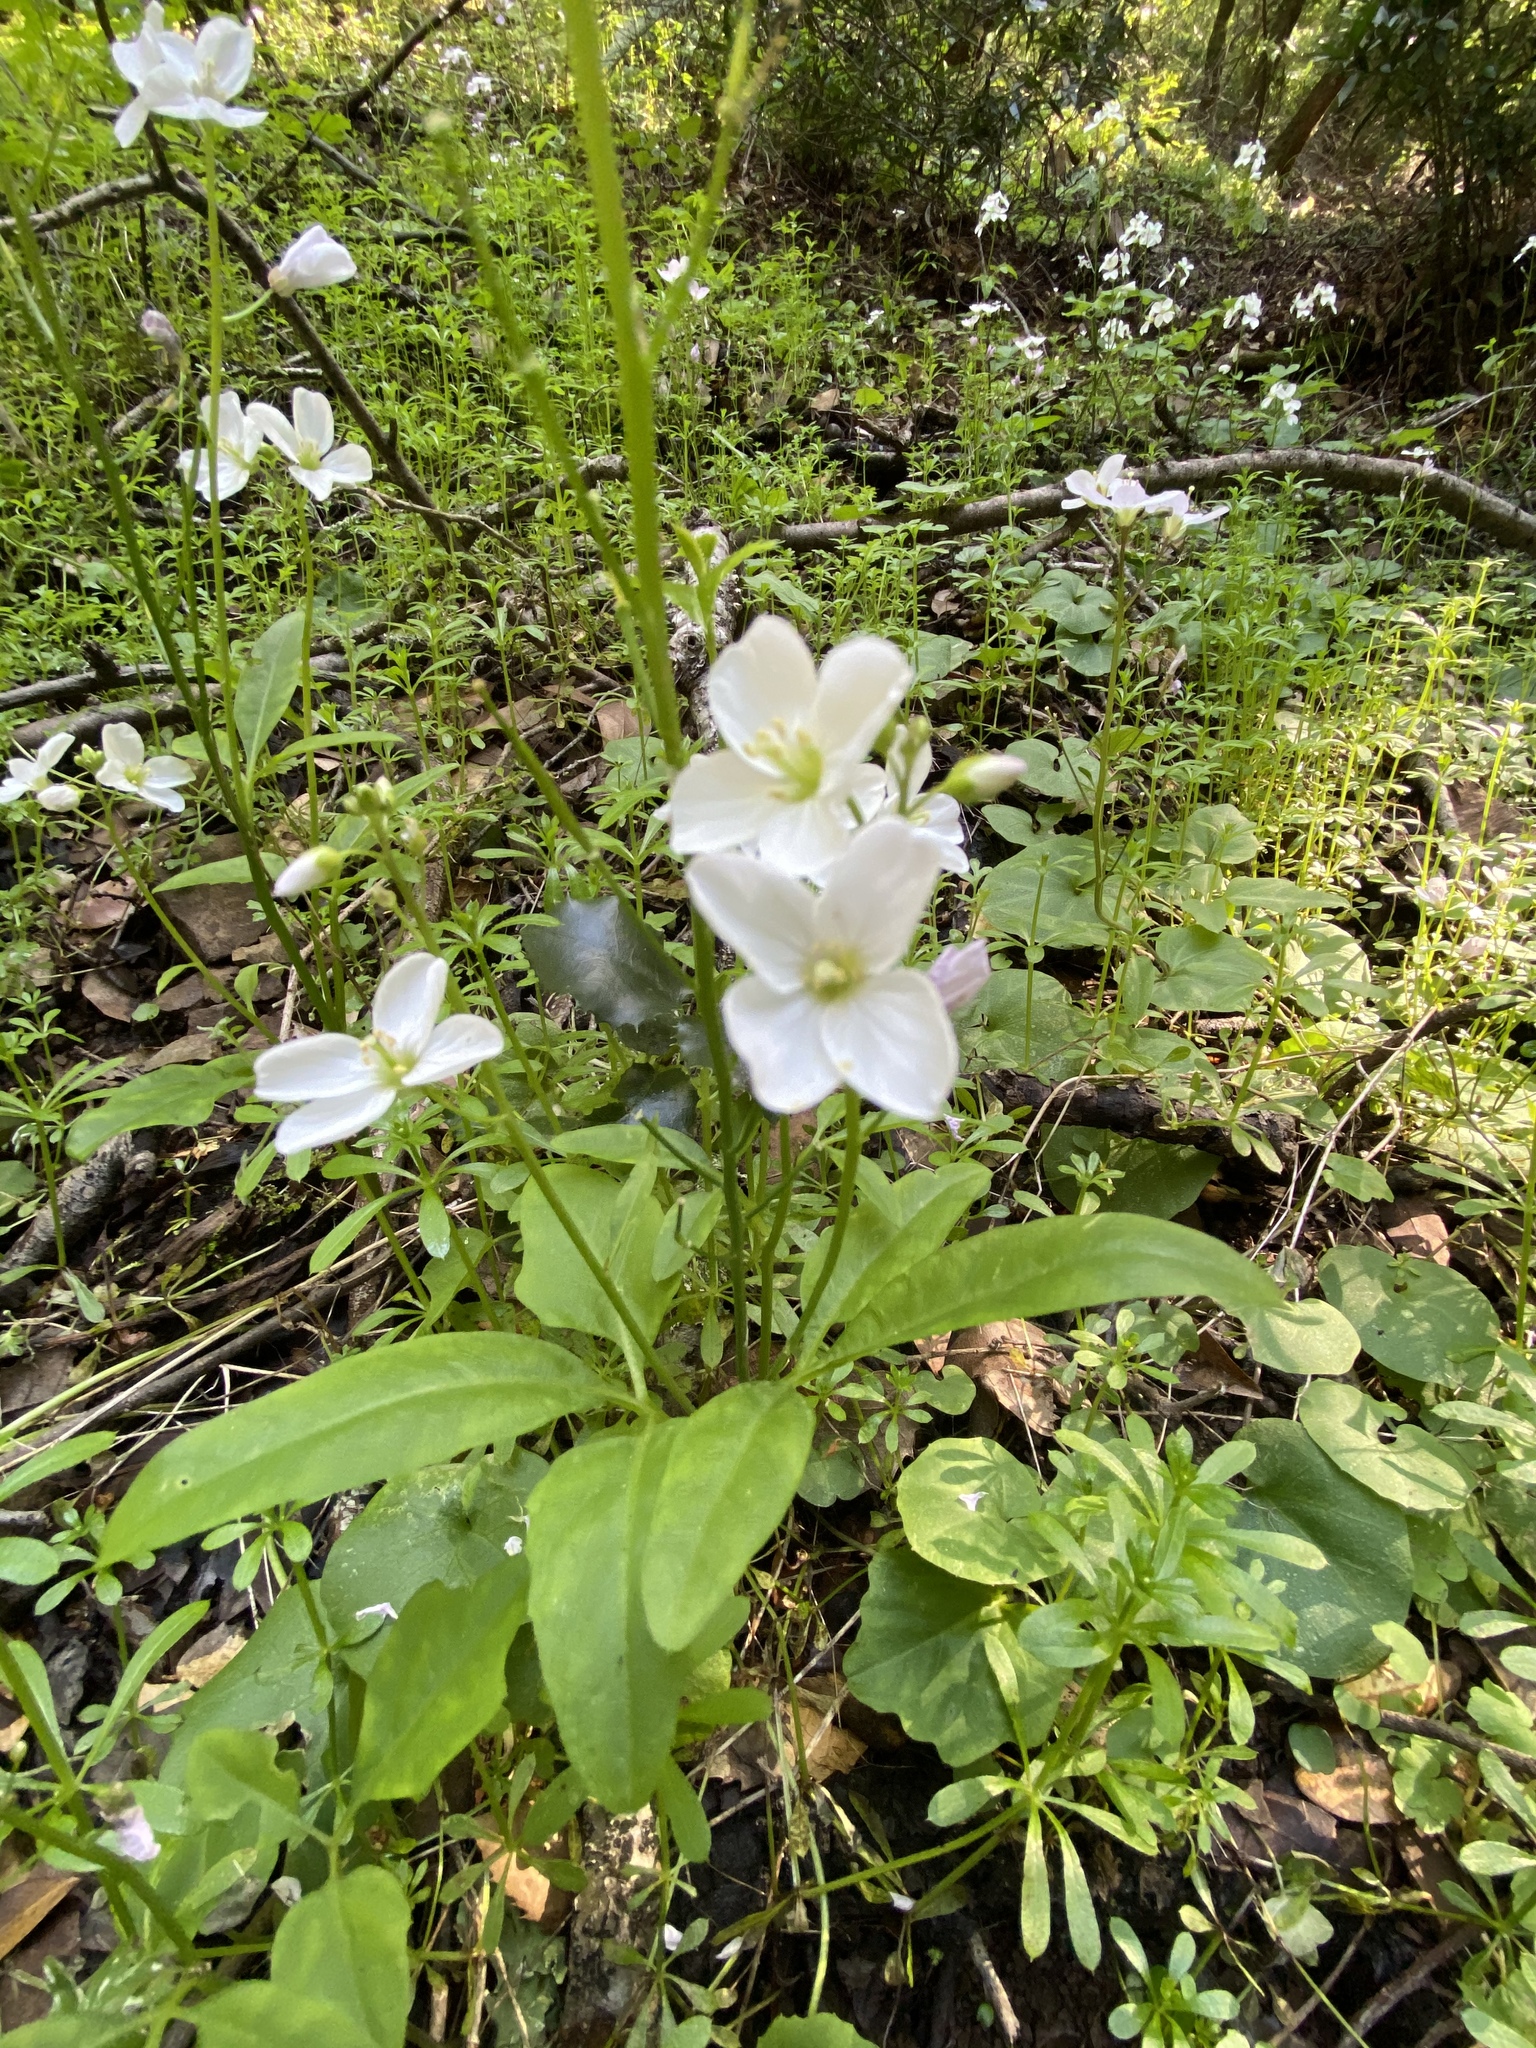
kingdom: Plantae
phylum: Tracheophyta
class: Magnoliopsida
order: Brassicales
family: Brassicaceae
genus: Cardamine
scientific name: Cardamine californica
